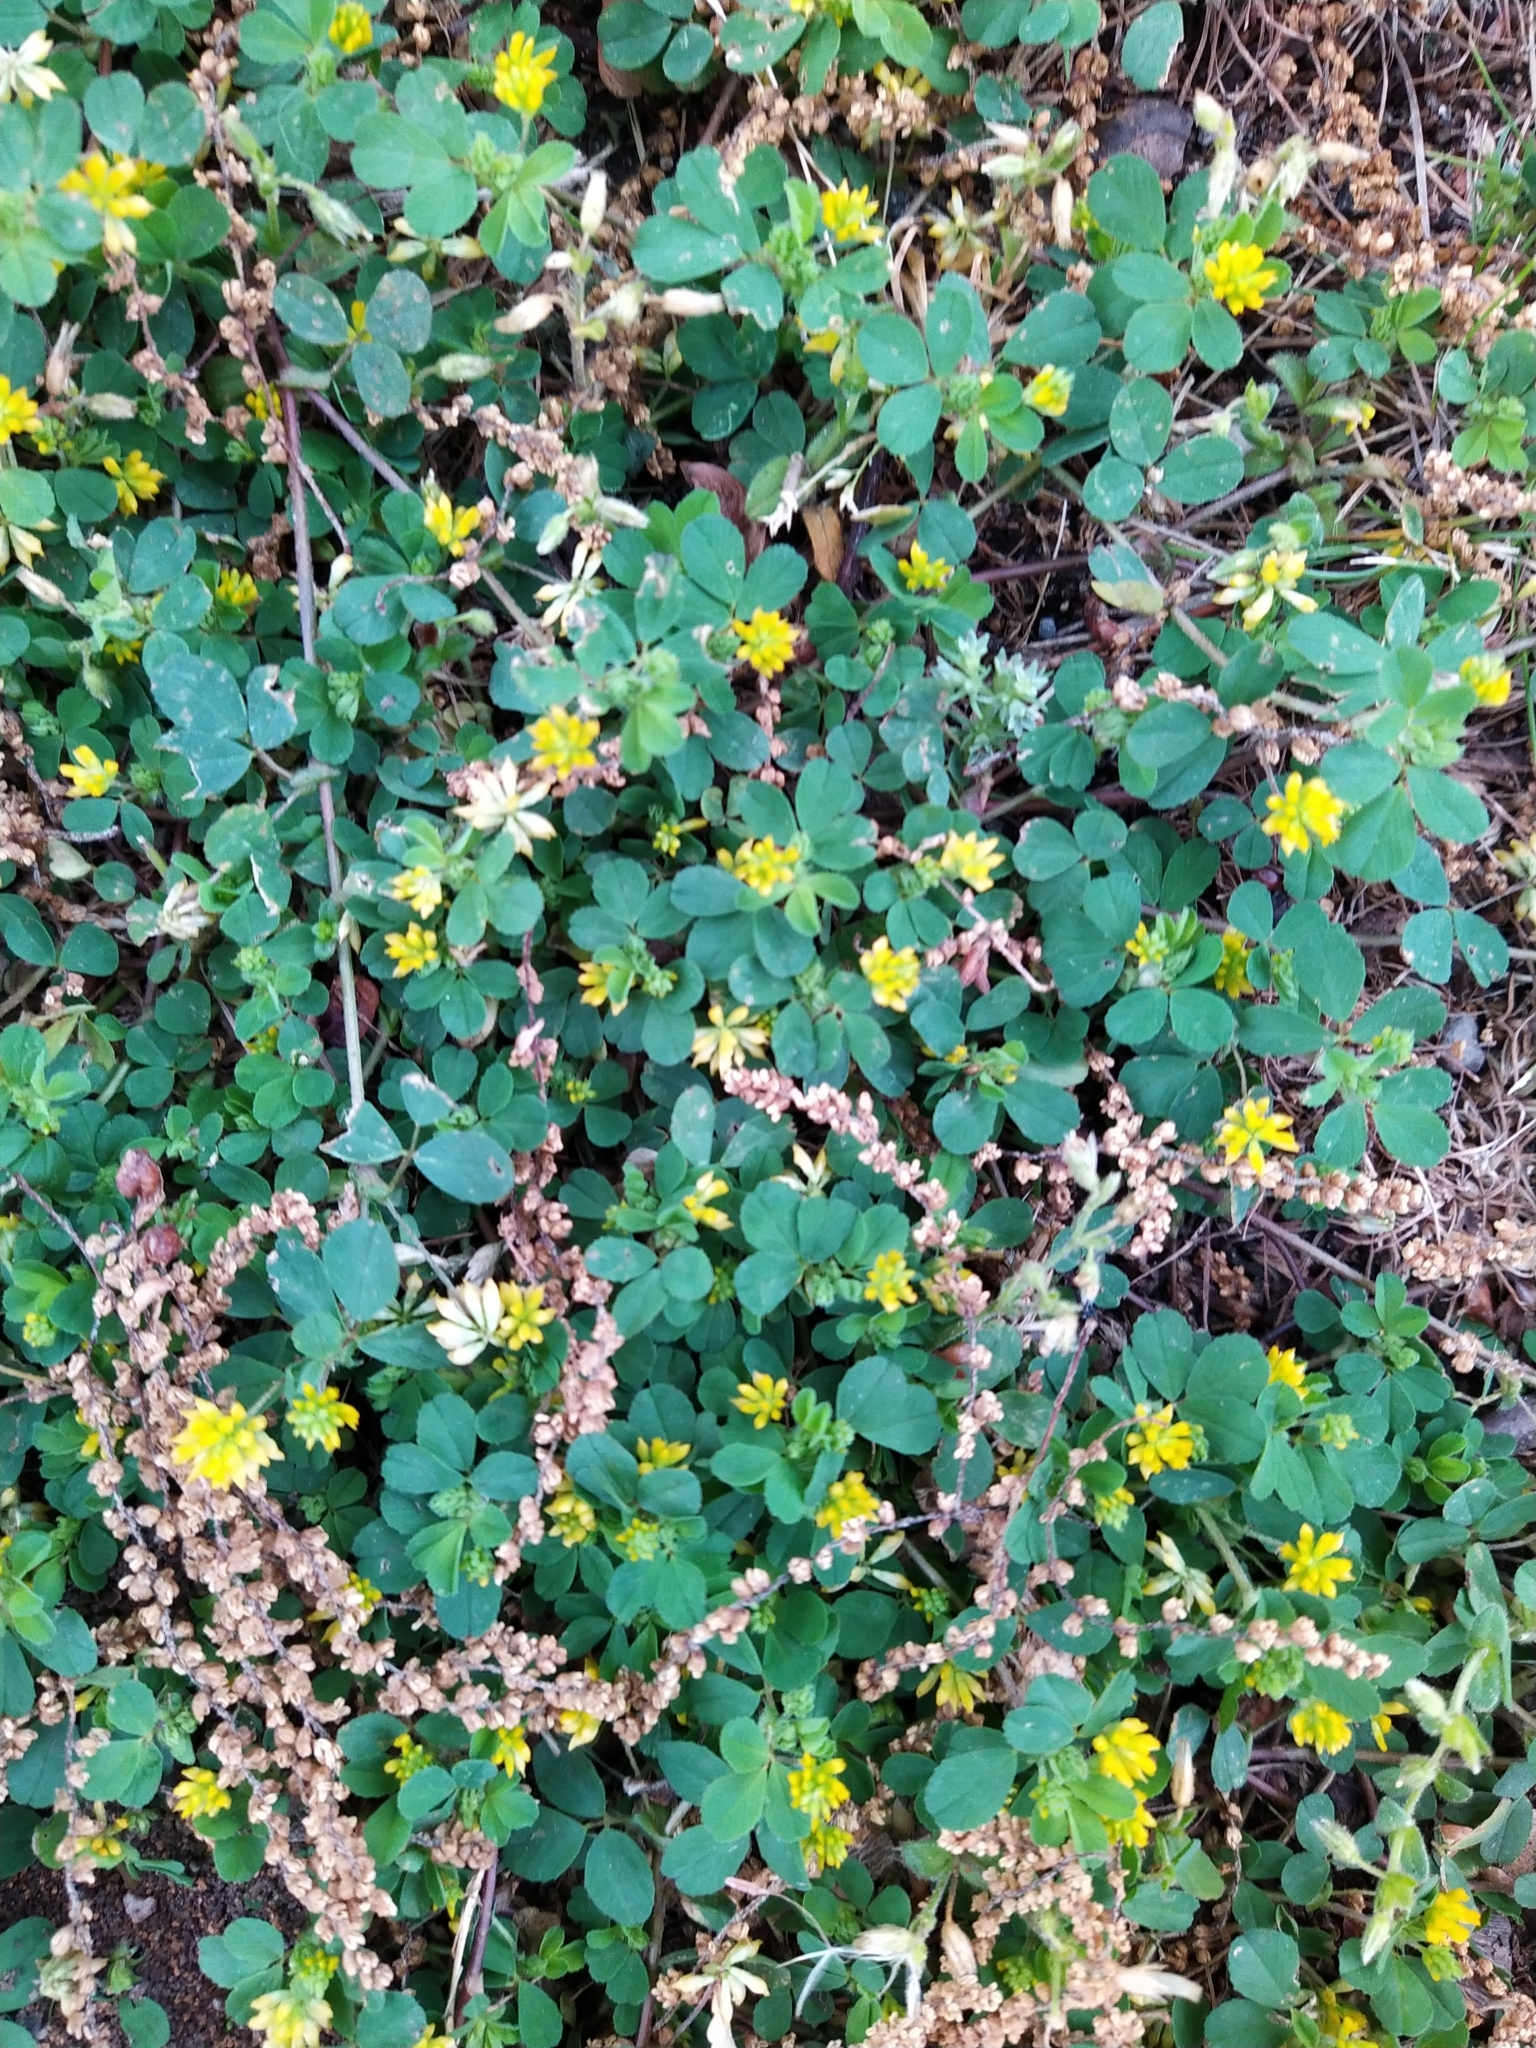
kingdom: Plantae
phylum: Tracheophyta
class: Magnoliopsida
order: Fabales
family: Fabaceae
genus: Trifolium
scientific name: Trifolium dubium
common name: Suckling clover
